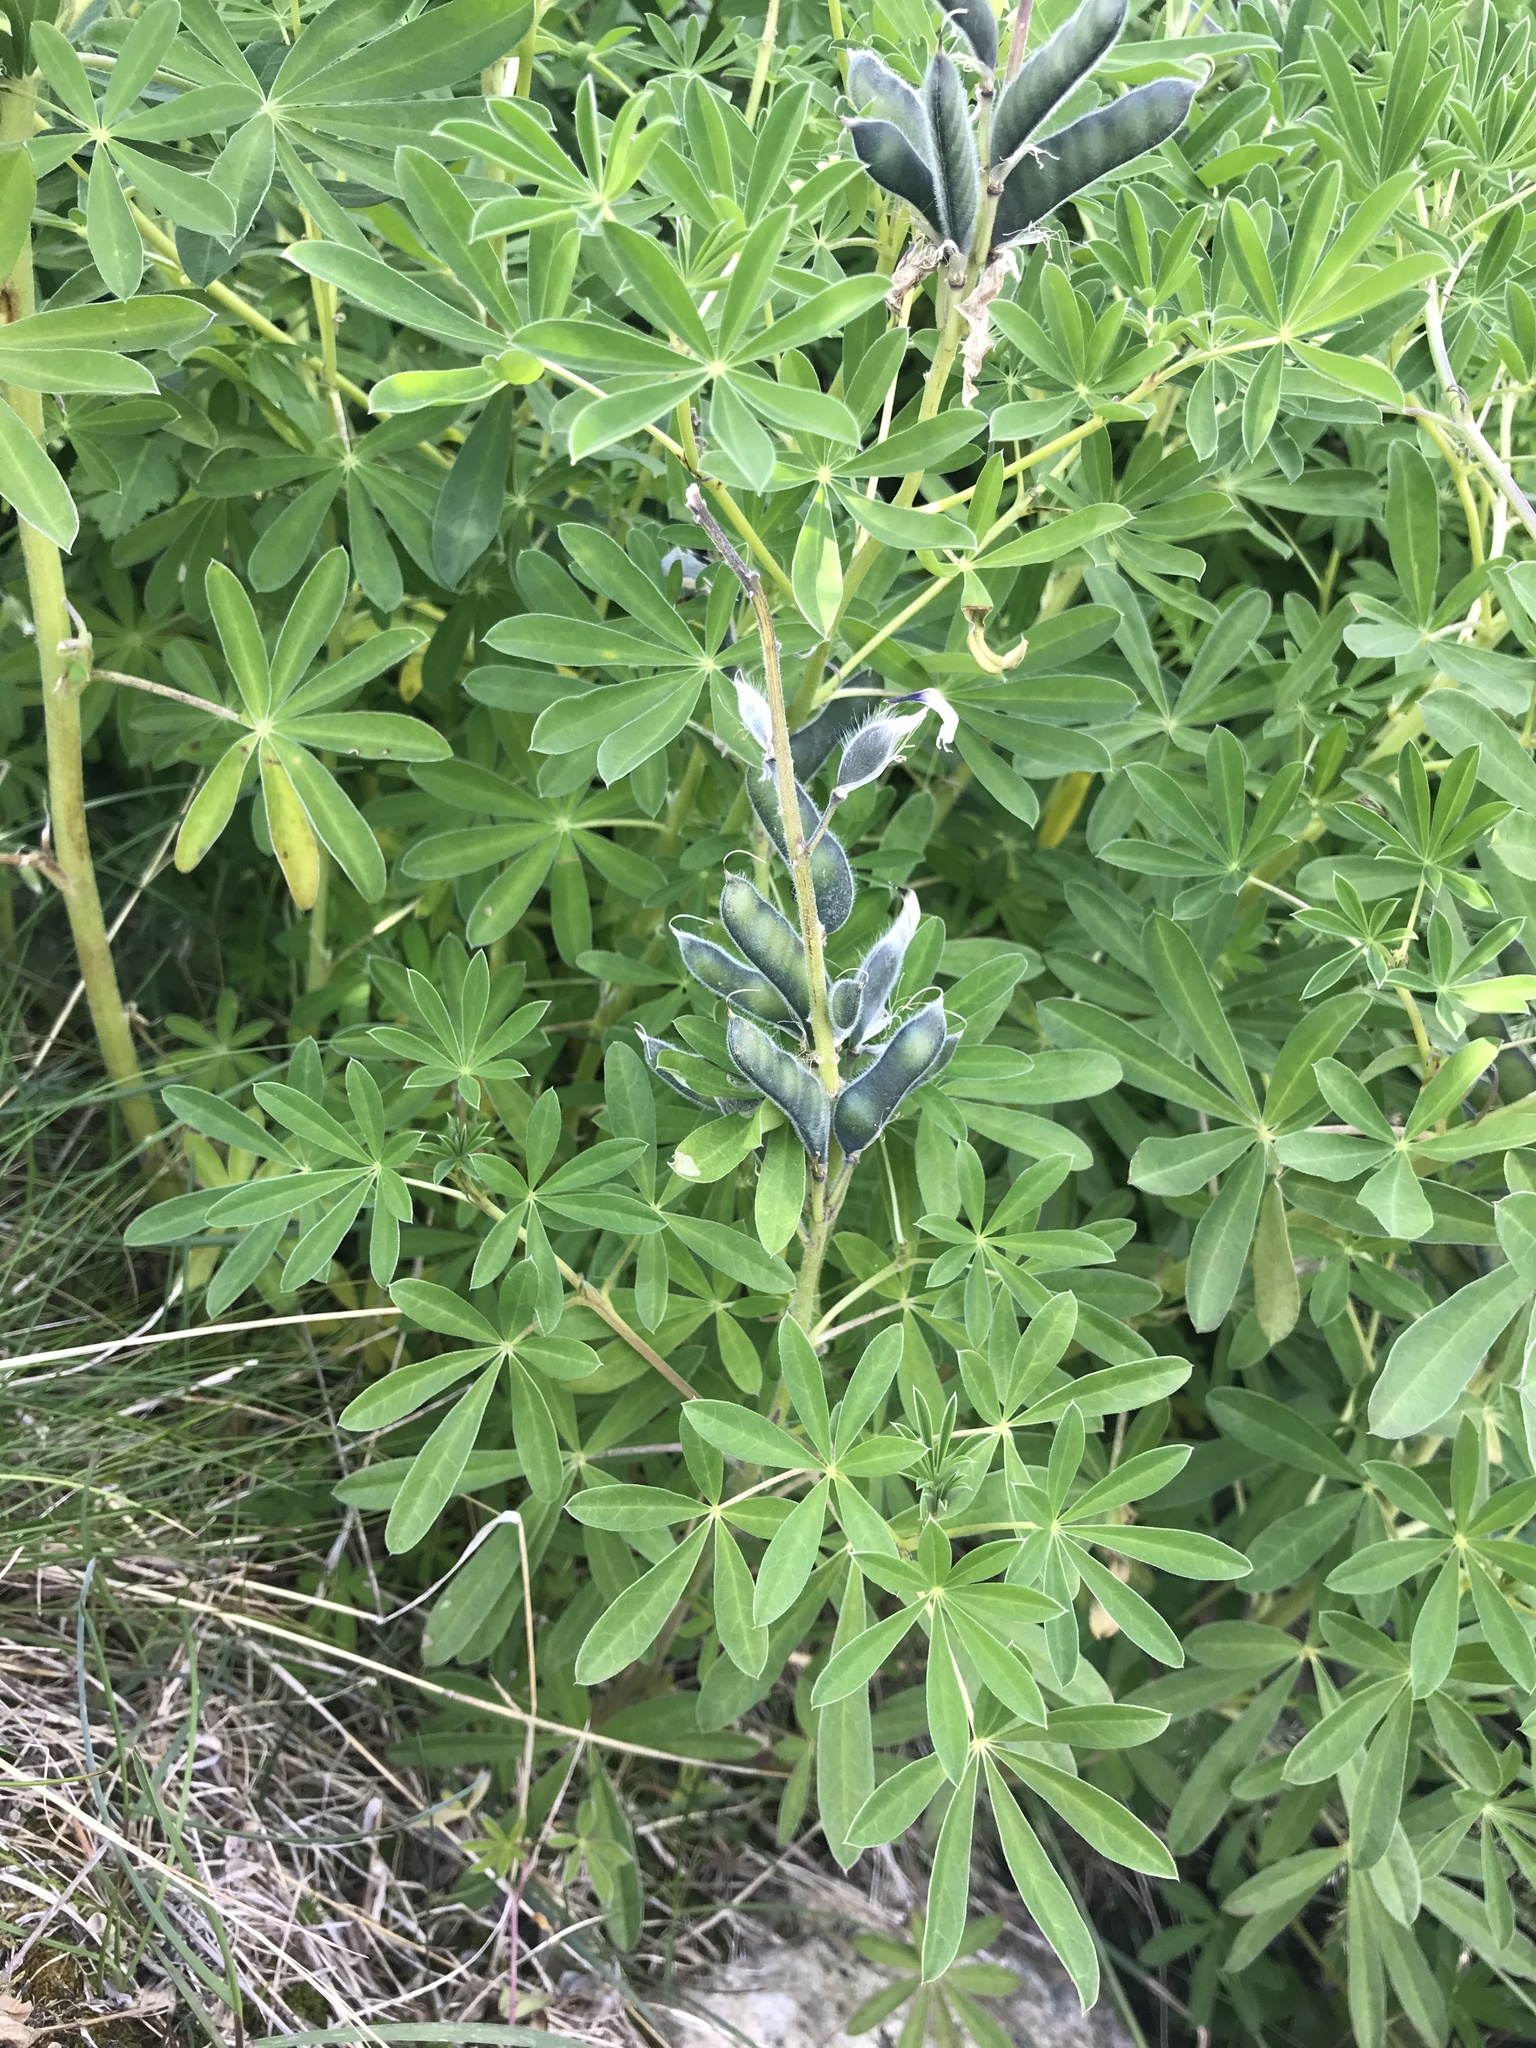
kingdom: Plantae
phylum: Tracheophyta
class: Magnoliopsida
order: Fabales
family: Fabaceae
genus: Lupinus
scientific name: Lupinus nootkatensis
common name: Nootka lupine
